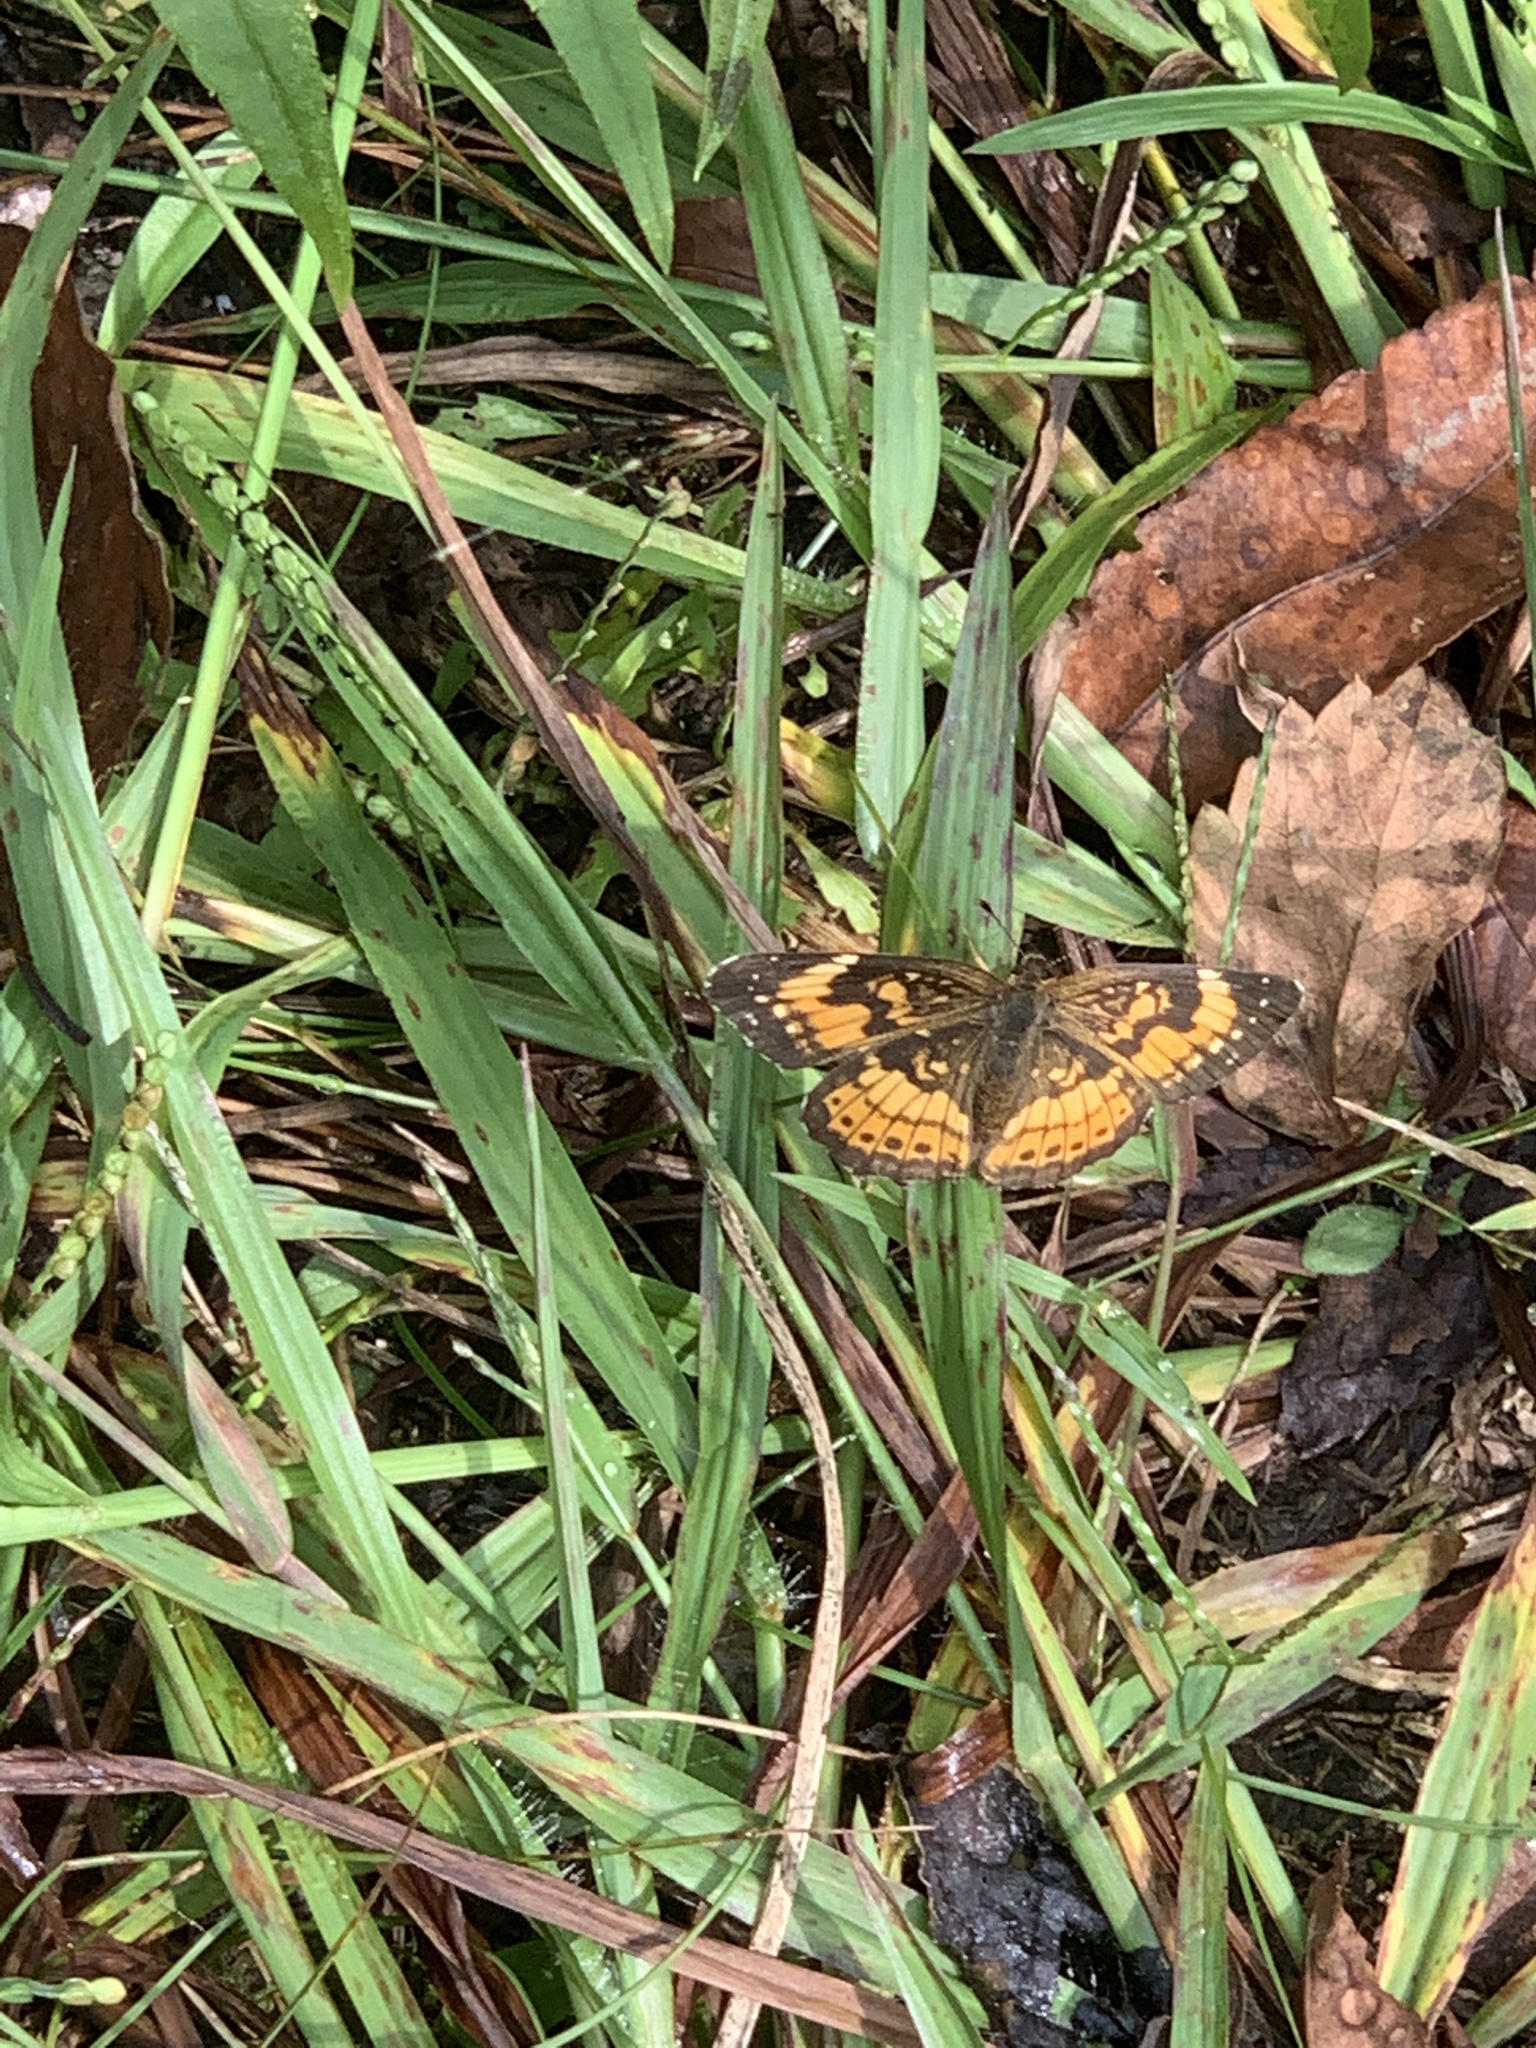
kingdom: Animalia
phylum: Arthropoda
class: Insecta
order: Lepidoptera
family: Nymphalidae
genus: Chlosyne
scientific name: Chlosyne nycteis
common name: Silvery checkerspot
